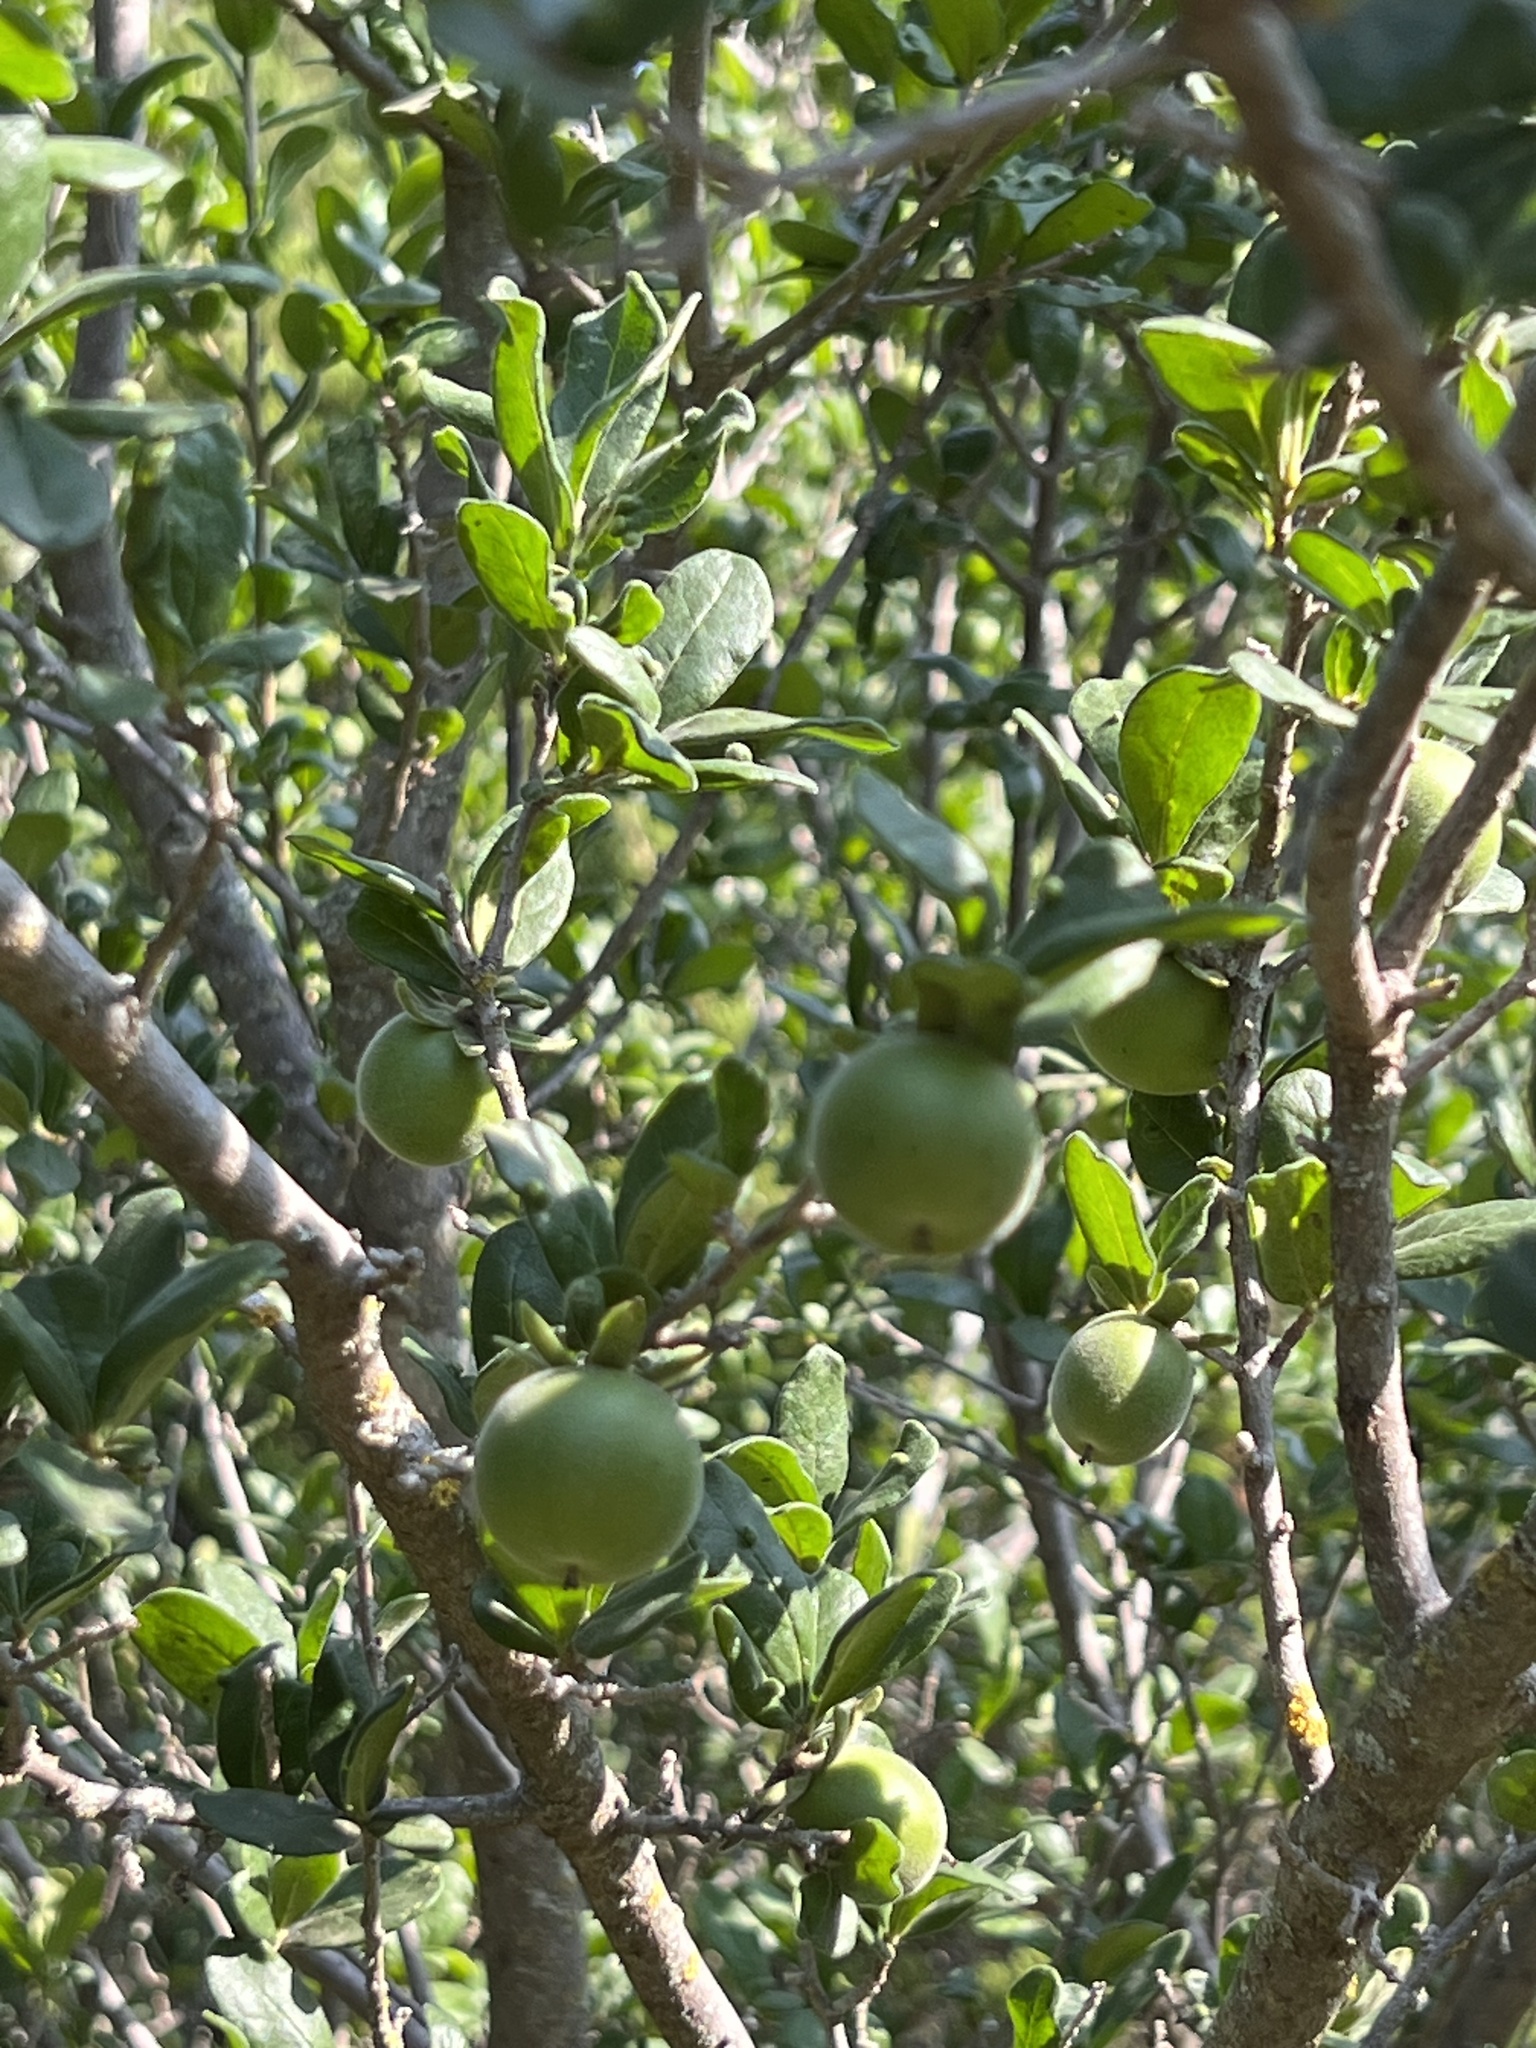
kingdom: Plantae
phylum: Tracheophyta
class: Magnoliopsida
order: Ericales
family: Ebenaceae
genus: Diospyros
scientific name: Diospyros texana
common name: Texas persimmon
